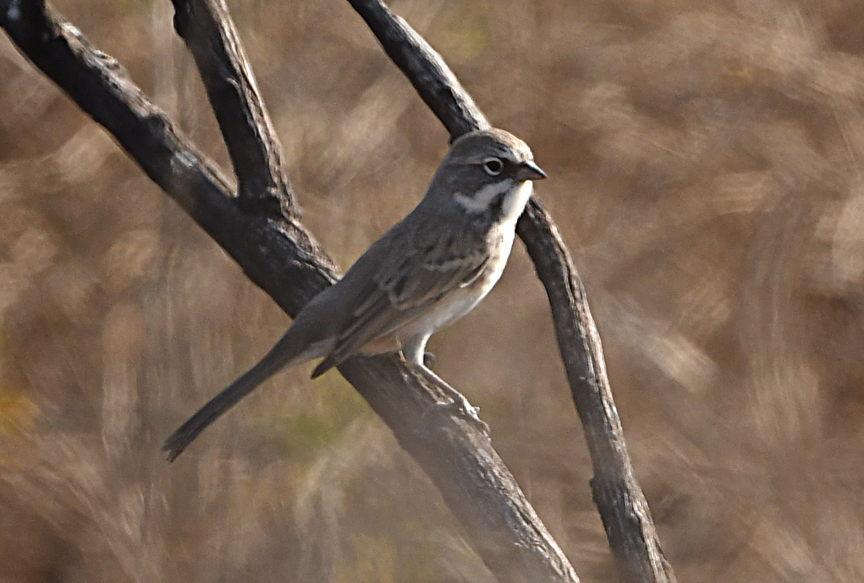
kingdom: Animalia
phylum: Chordata
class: Aves
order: Passeriformes
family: Passerellidae
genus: Artemisiospiza
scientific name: Artemisiospiza belli
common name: Bell's sparrow
